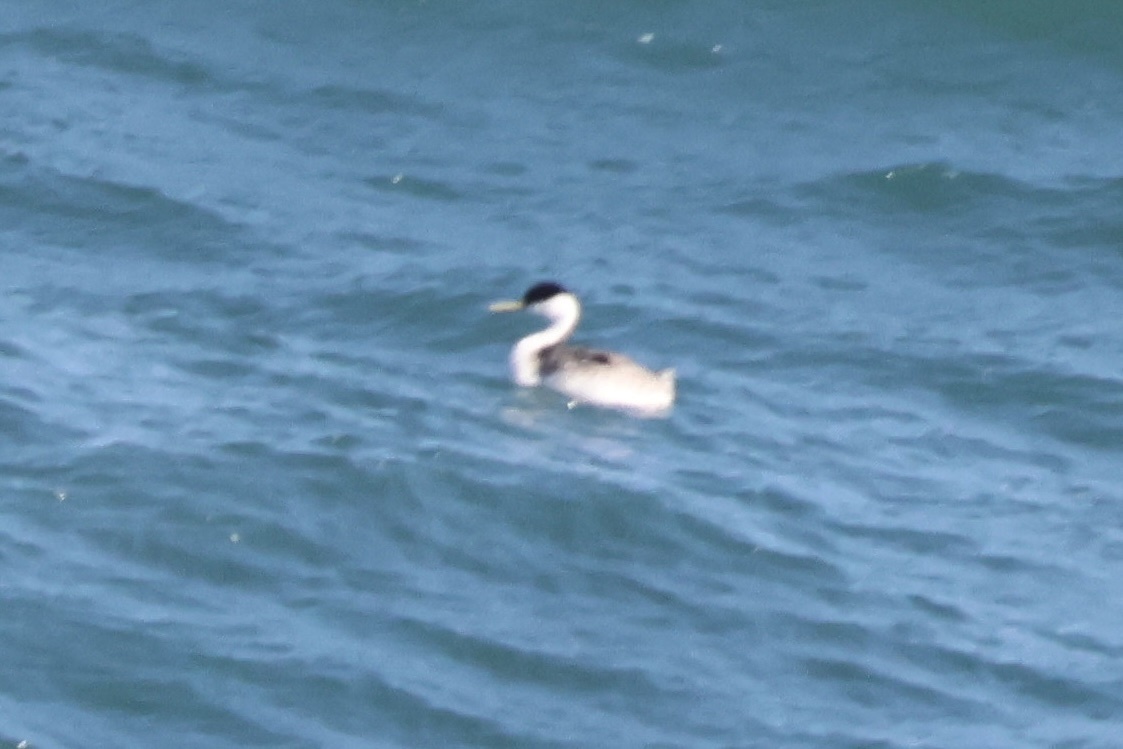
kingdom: Animalia
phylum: Chordata
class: Aves
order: Podicipediformes
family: Podicipedidae
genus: Aechmophorus
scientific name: Aechmophorus occidentalis
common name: Western grebe
